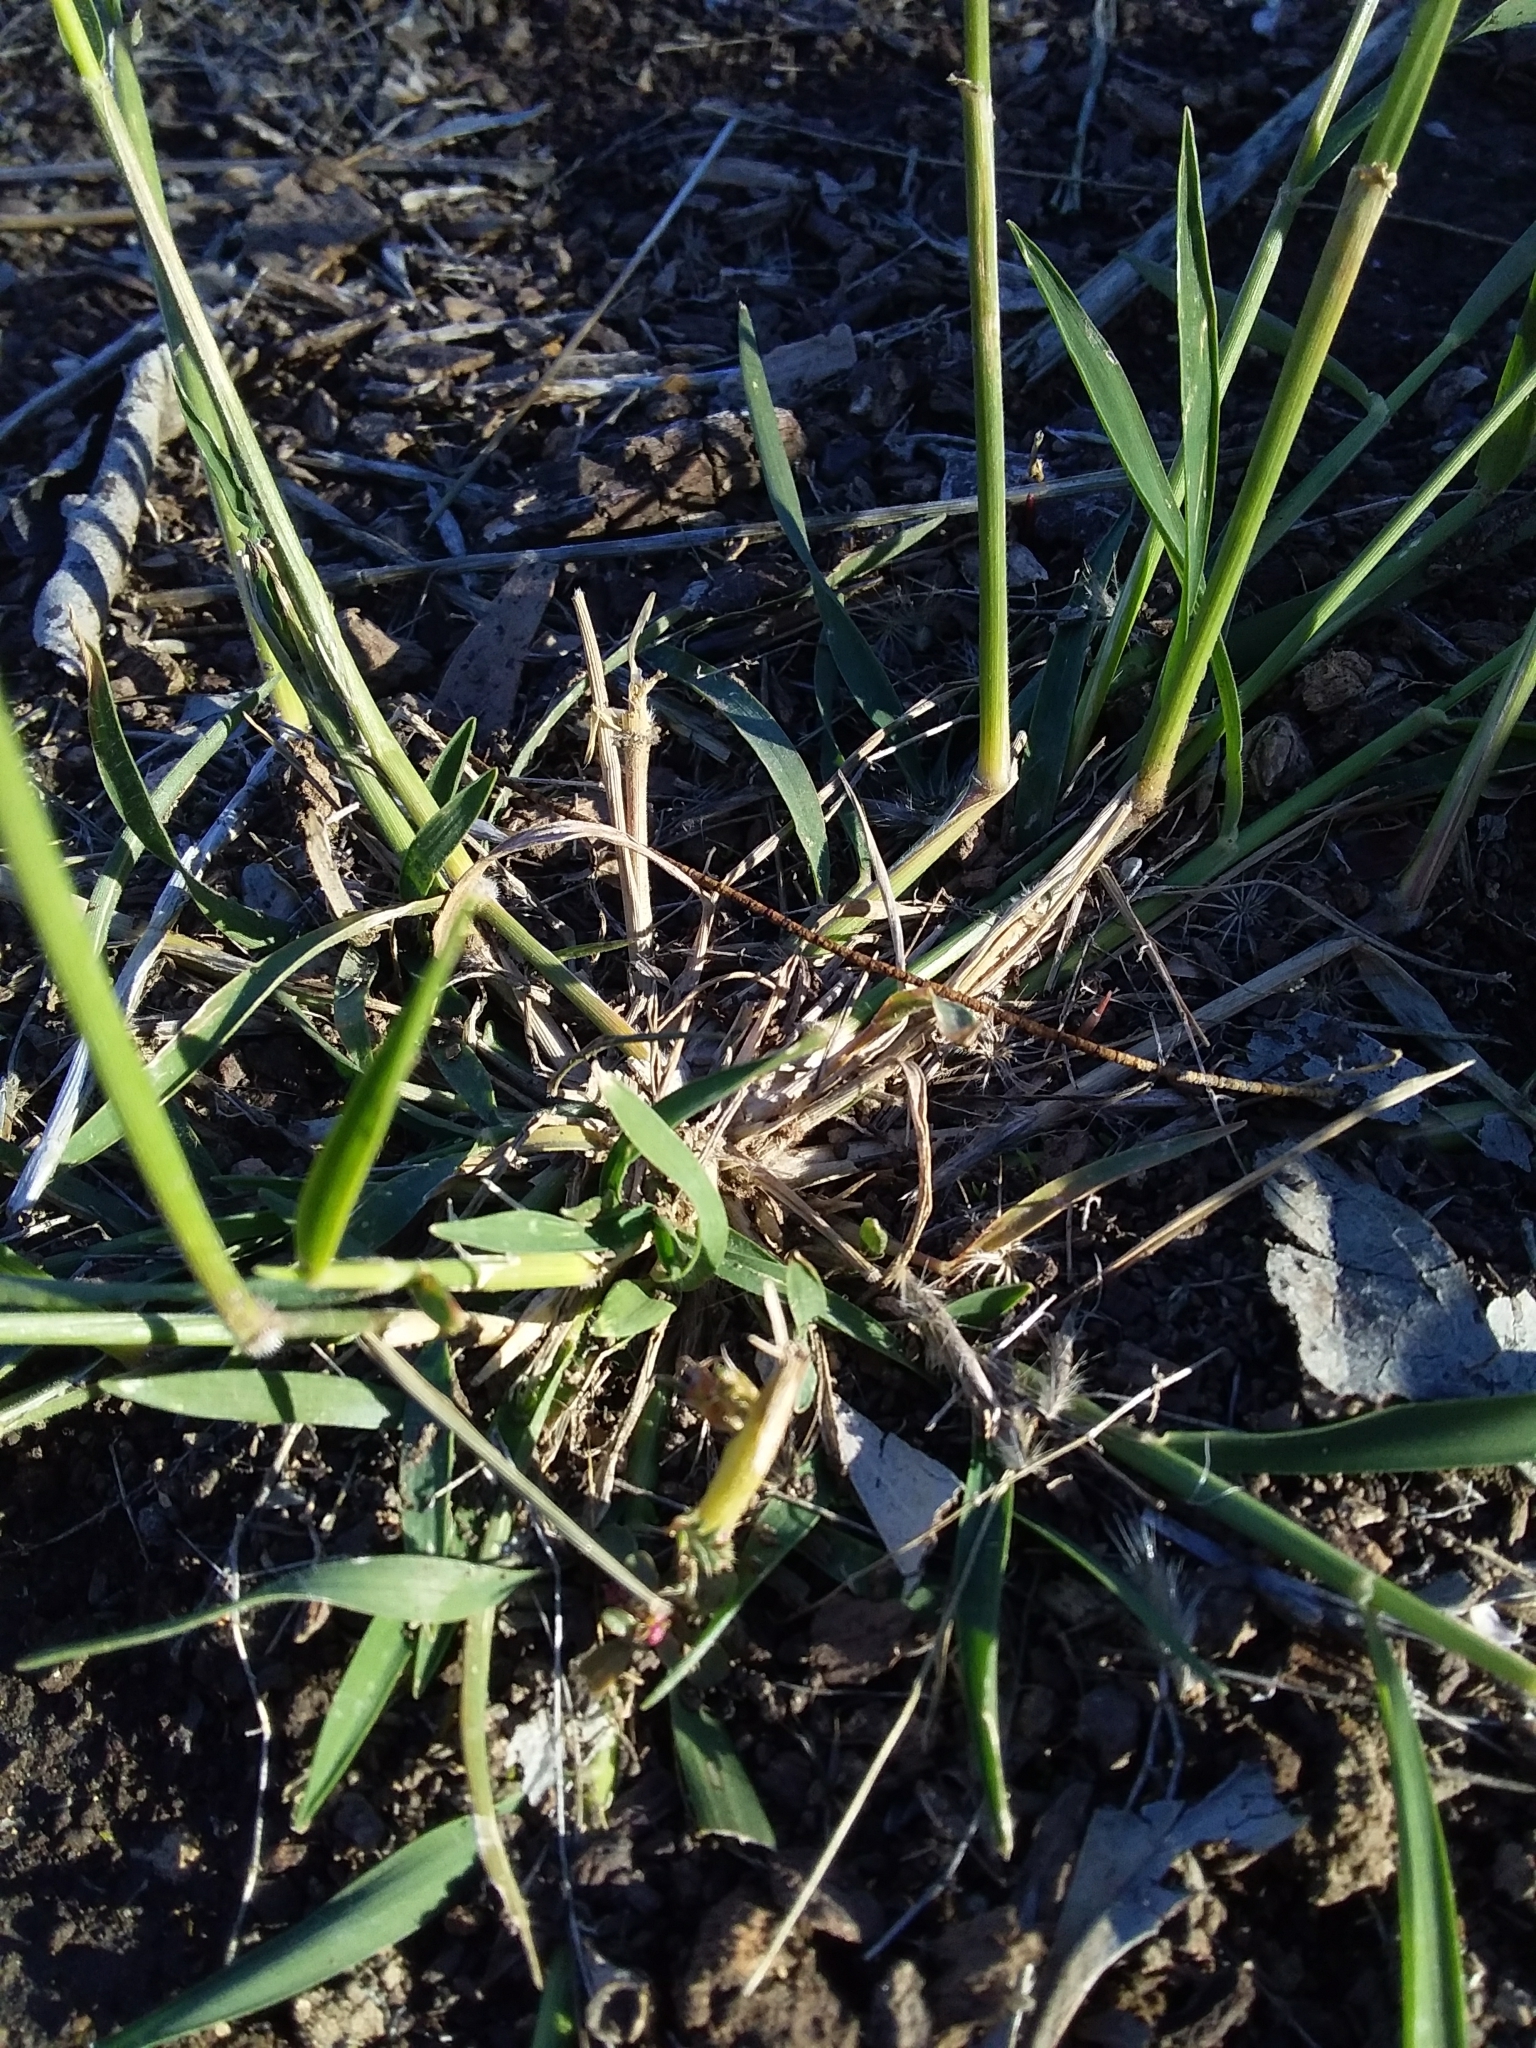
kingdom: Plantae
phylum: Tracheophyta
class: Liliopsida
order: Poales
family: Poaceae
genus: Enneapogon
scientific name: Enneapogon nigricans
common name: Pappus grass
